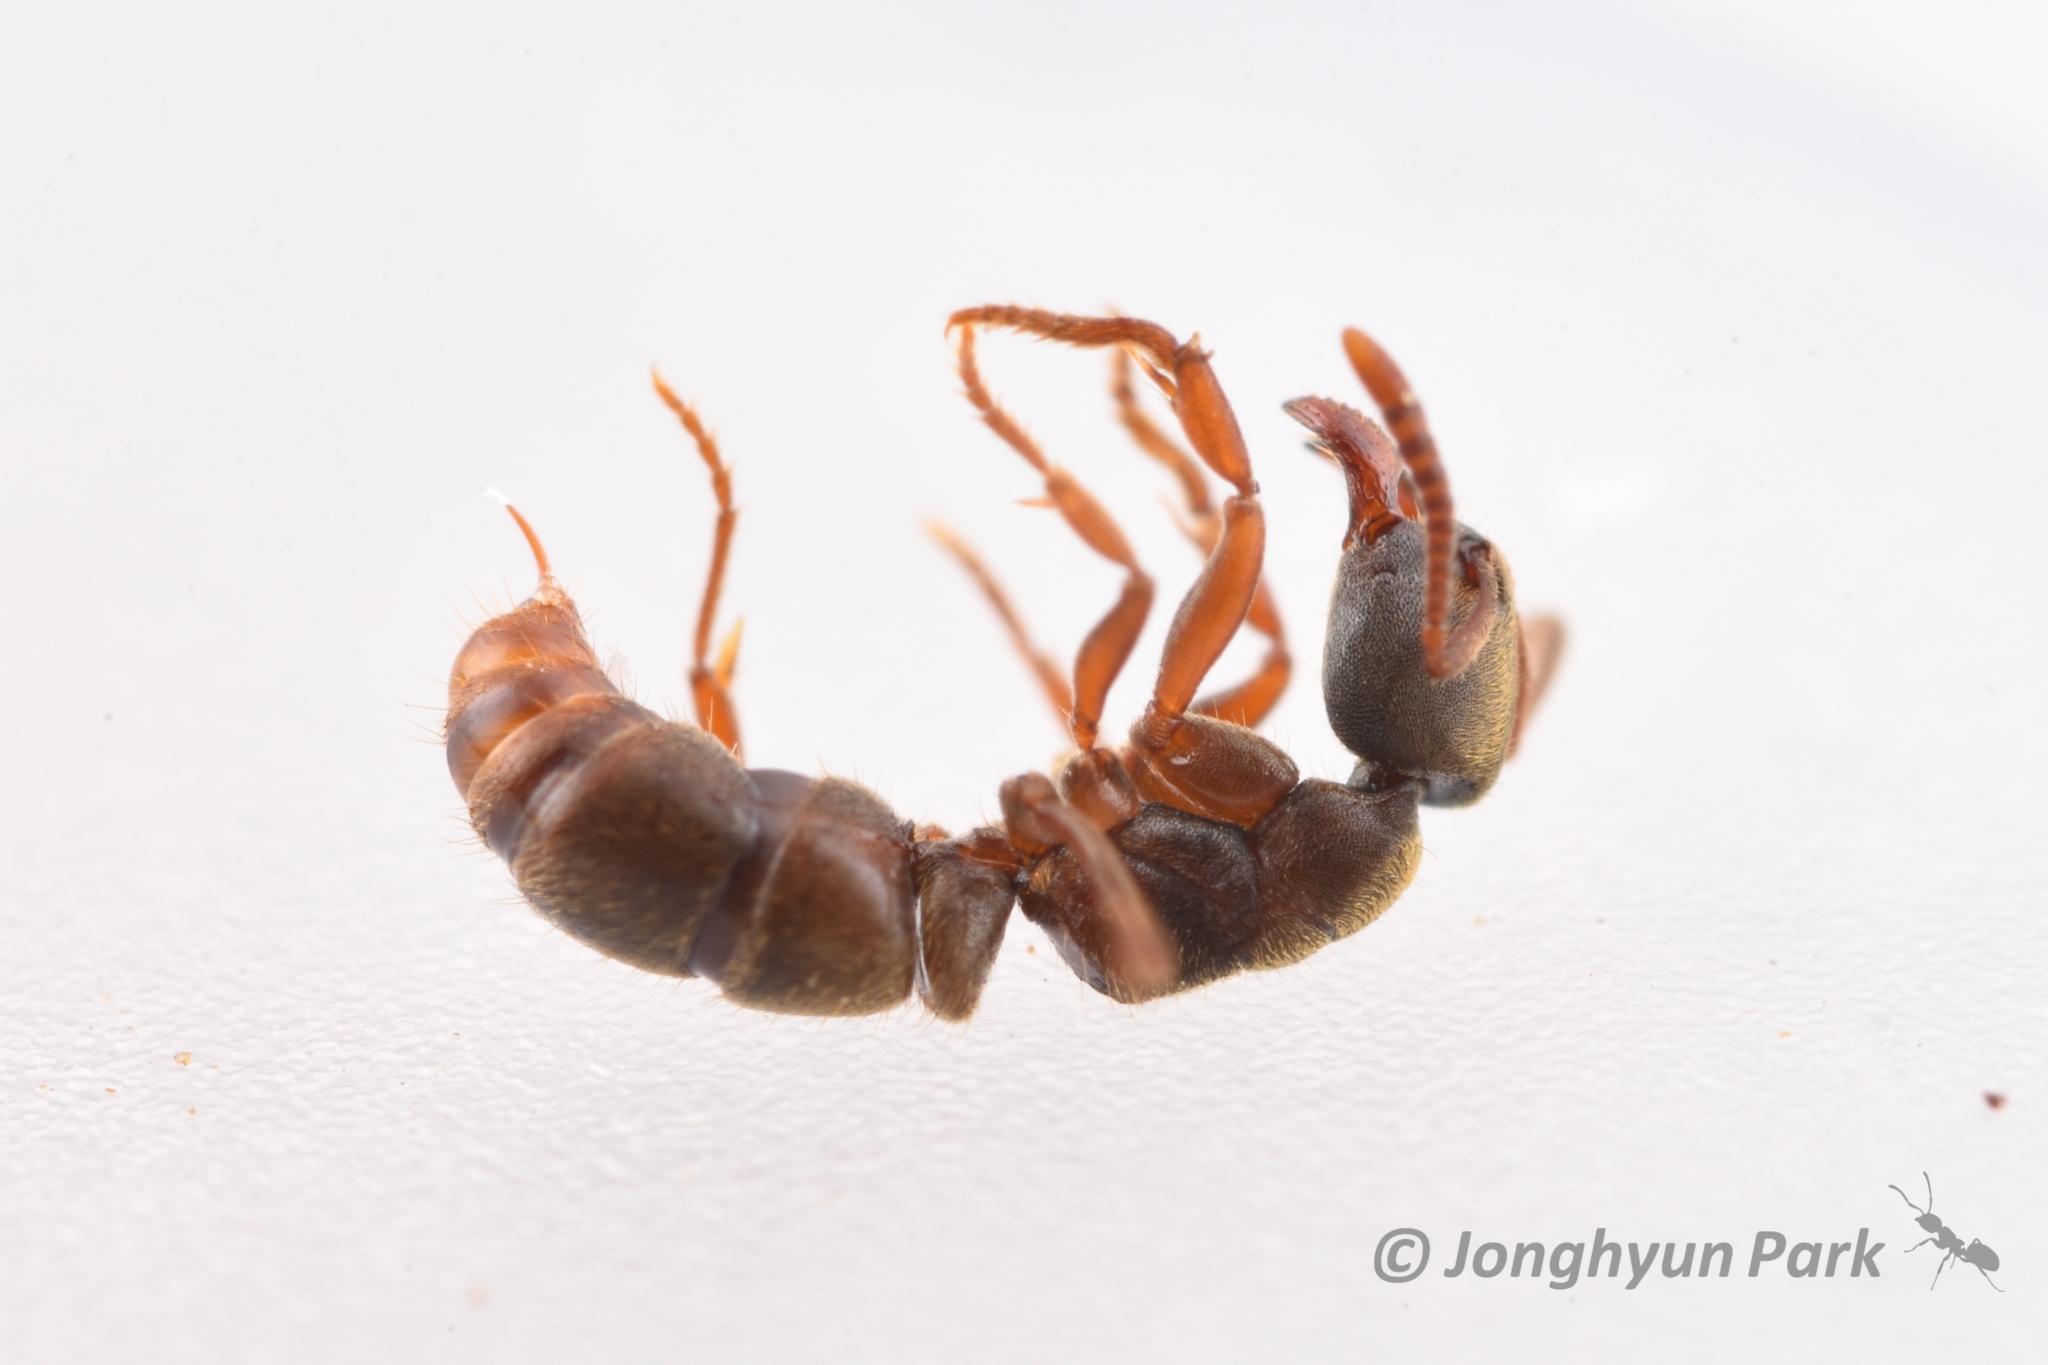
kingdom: Animalia
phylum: Arthropoda
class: Insecta
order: Hymenoptera
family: Formicidae
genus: Pachycondyla
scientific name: Pachycondyla
